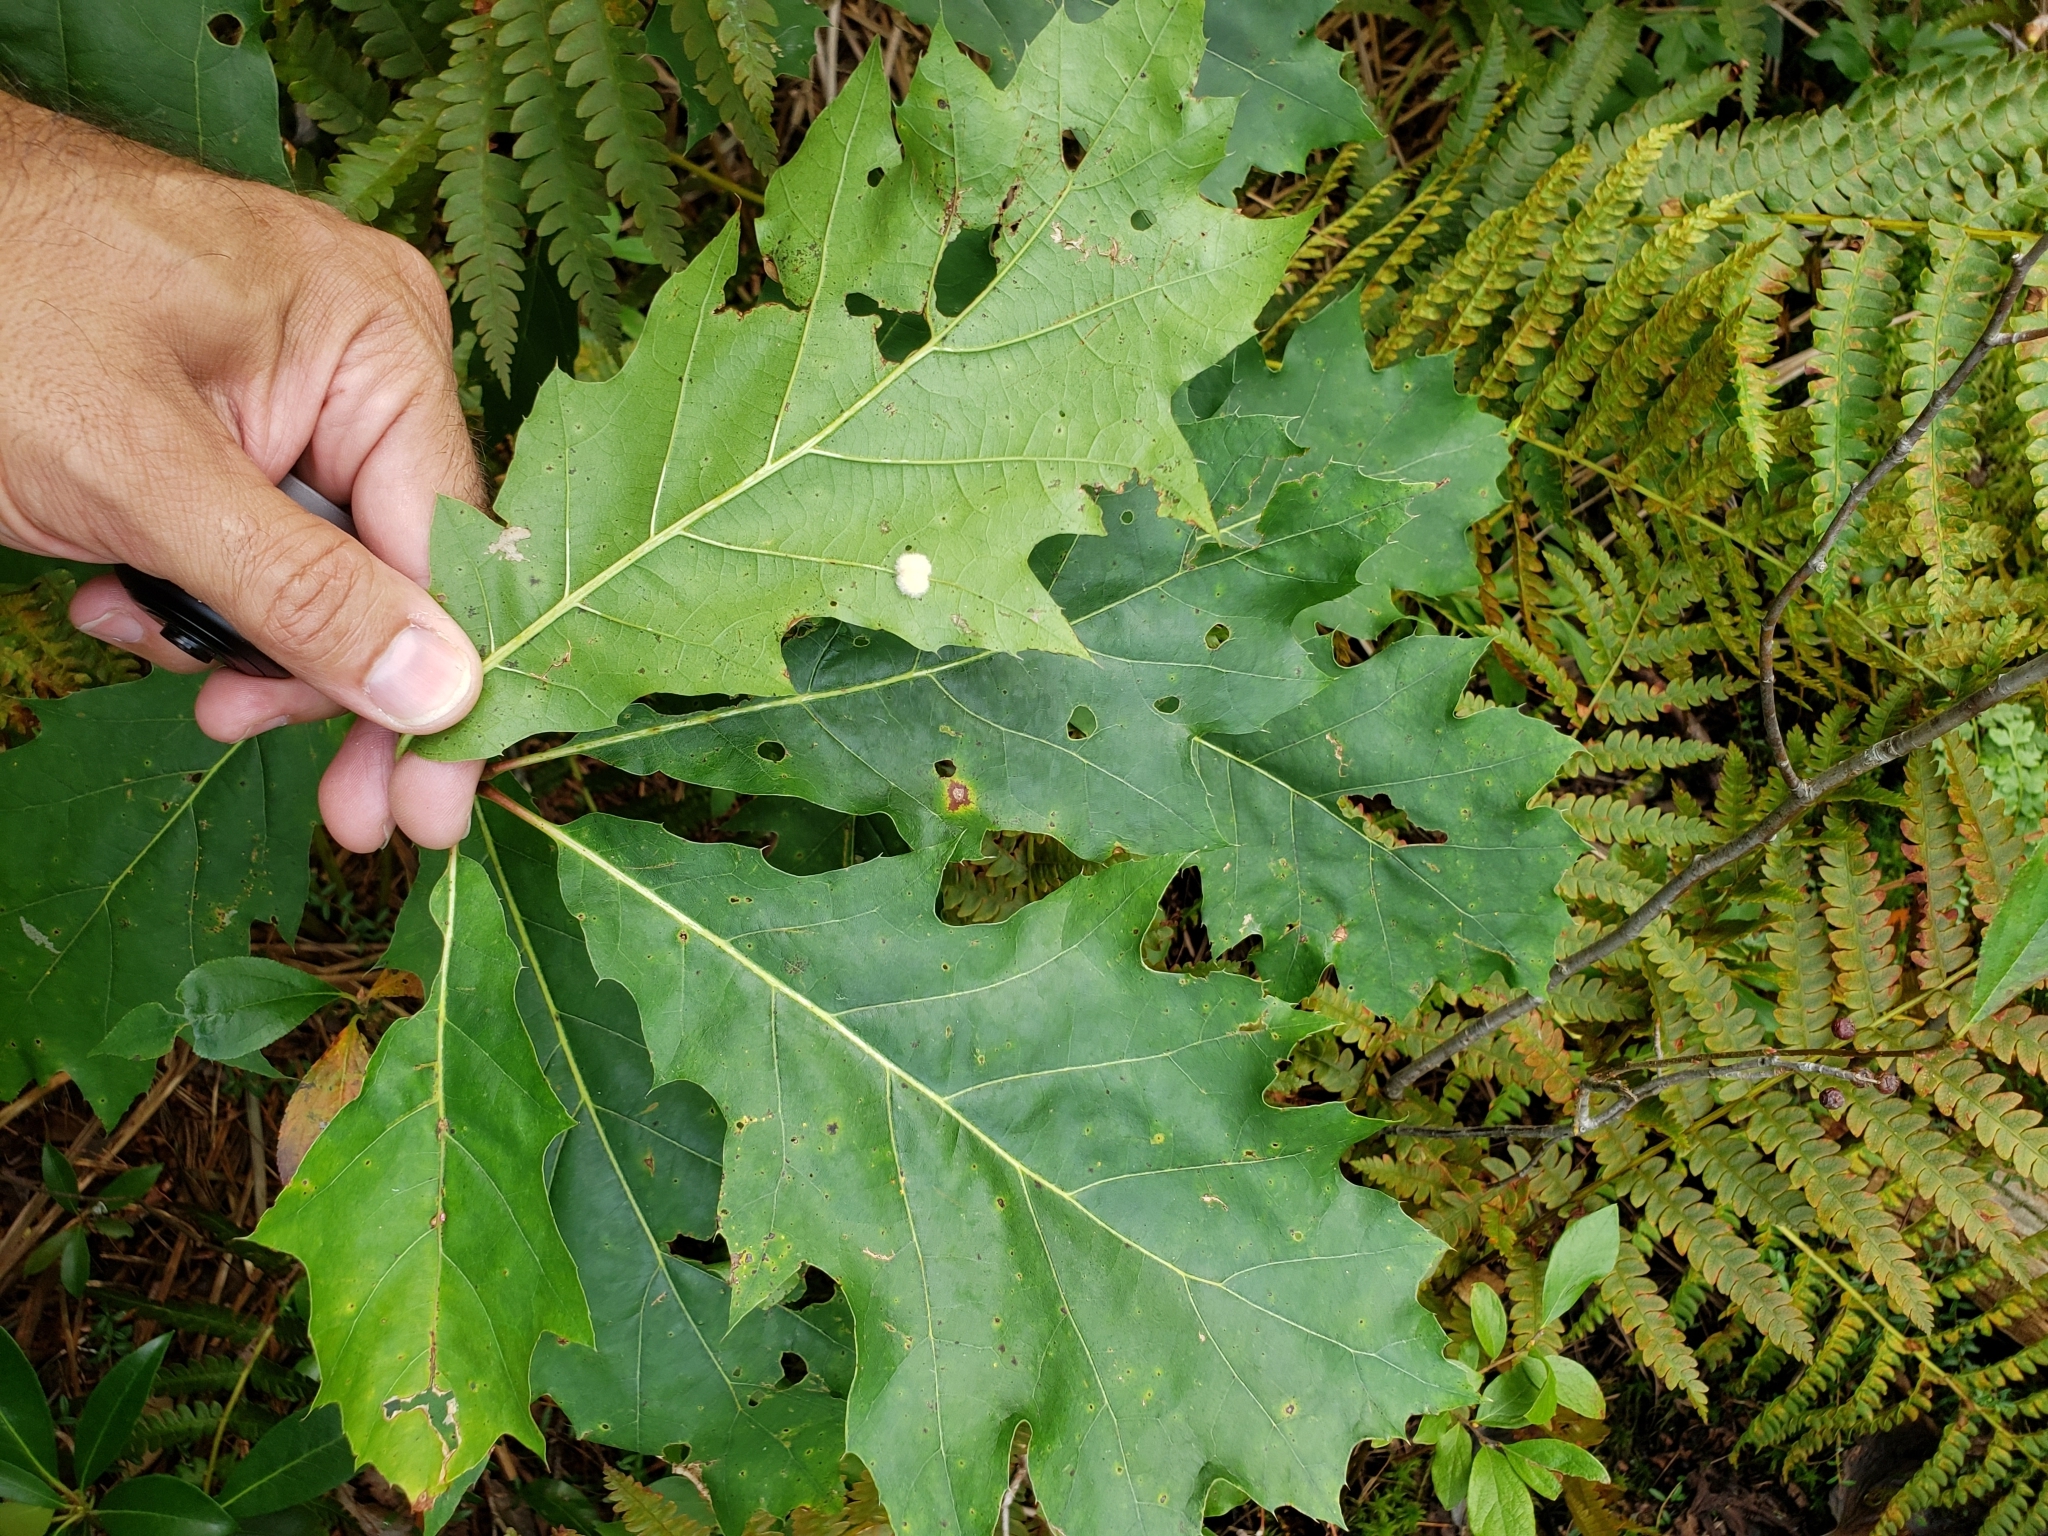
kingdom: Animalia
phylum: Arthropoda
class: Insecta
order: Hymenoptera
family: Cynipidae
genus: Callirhytis
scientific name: Callirhytis
